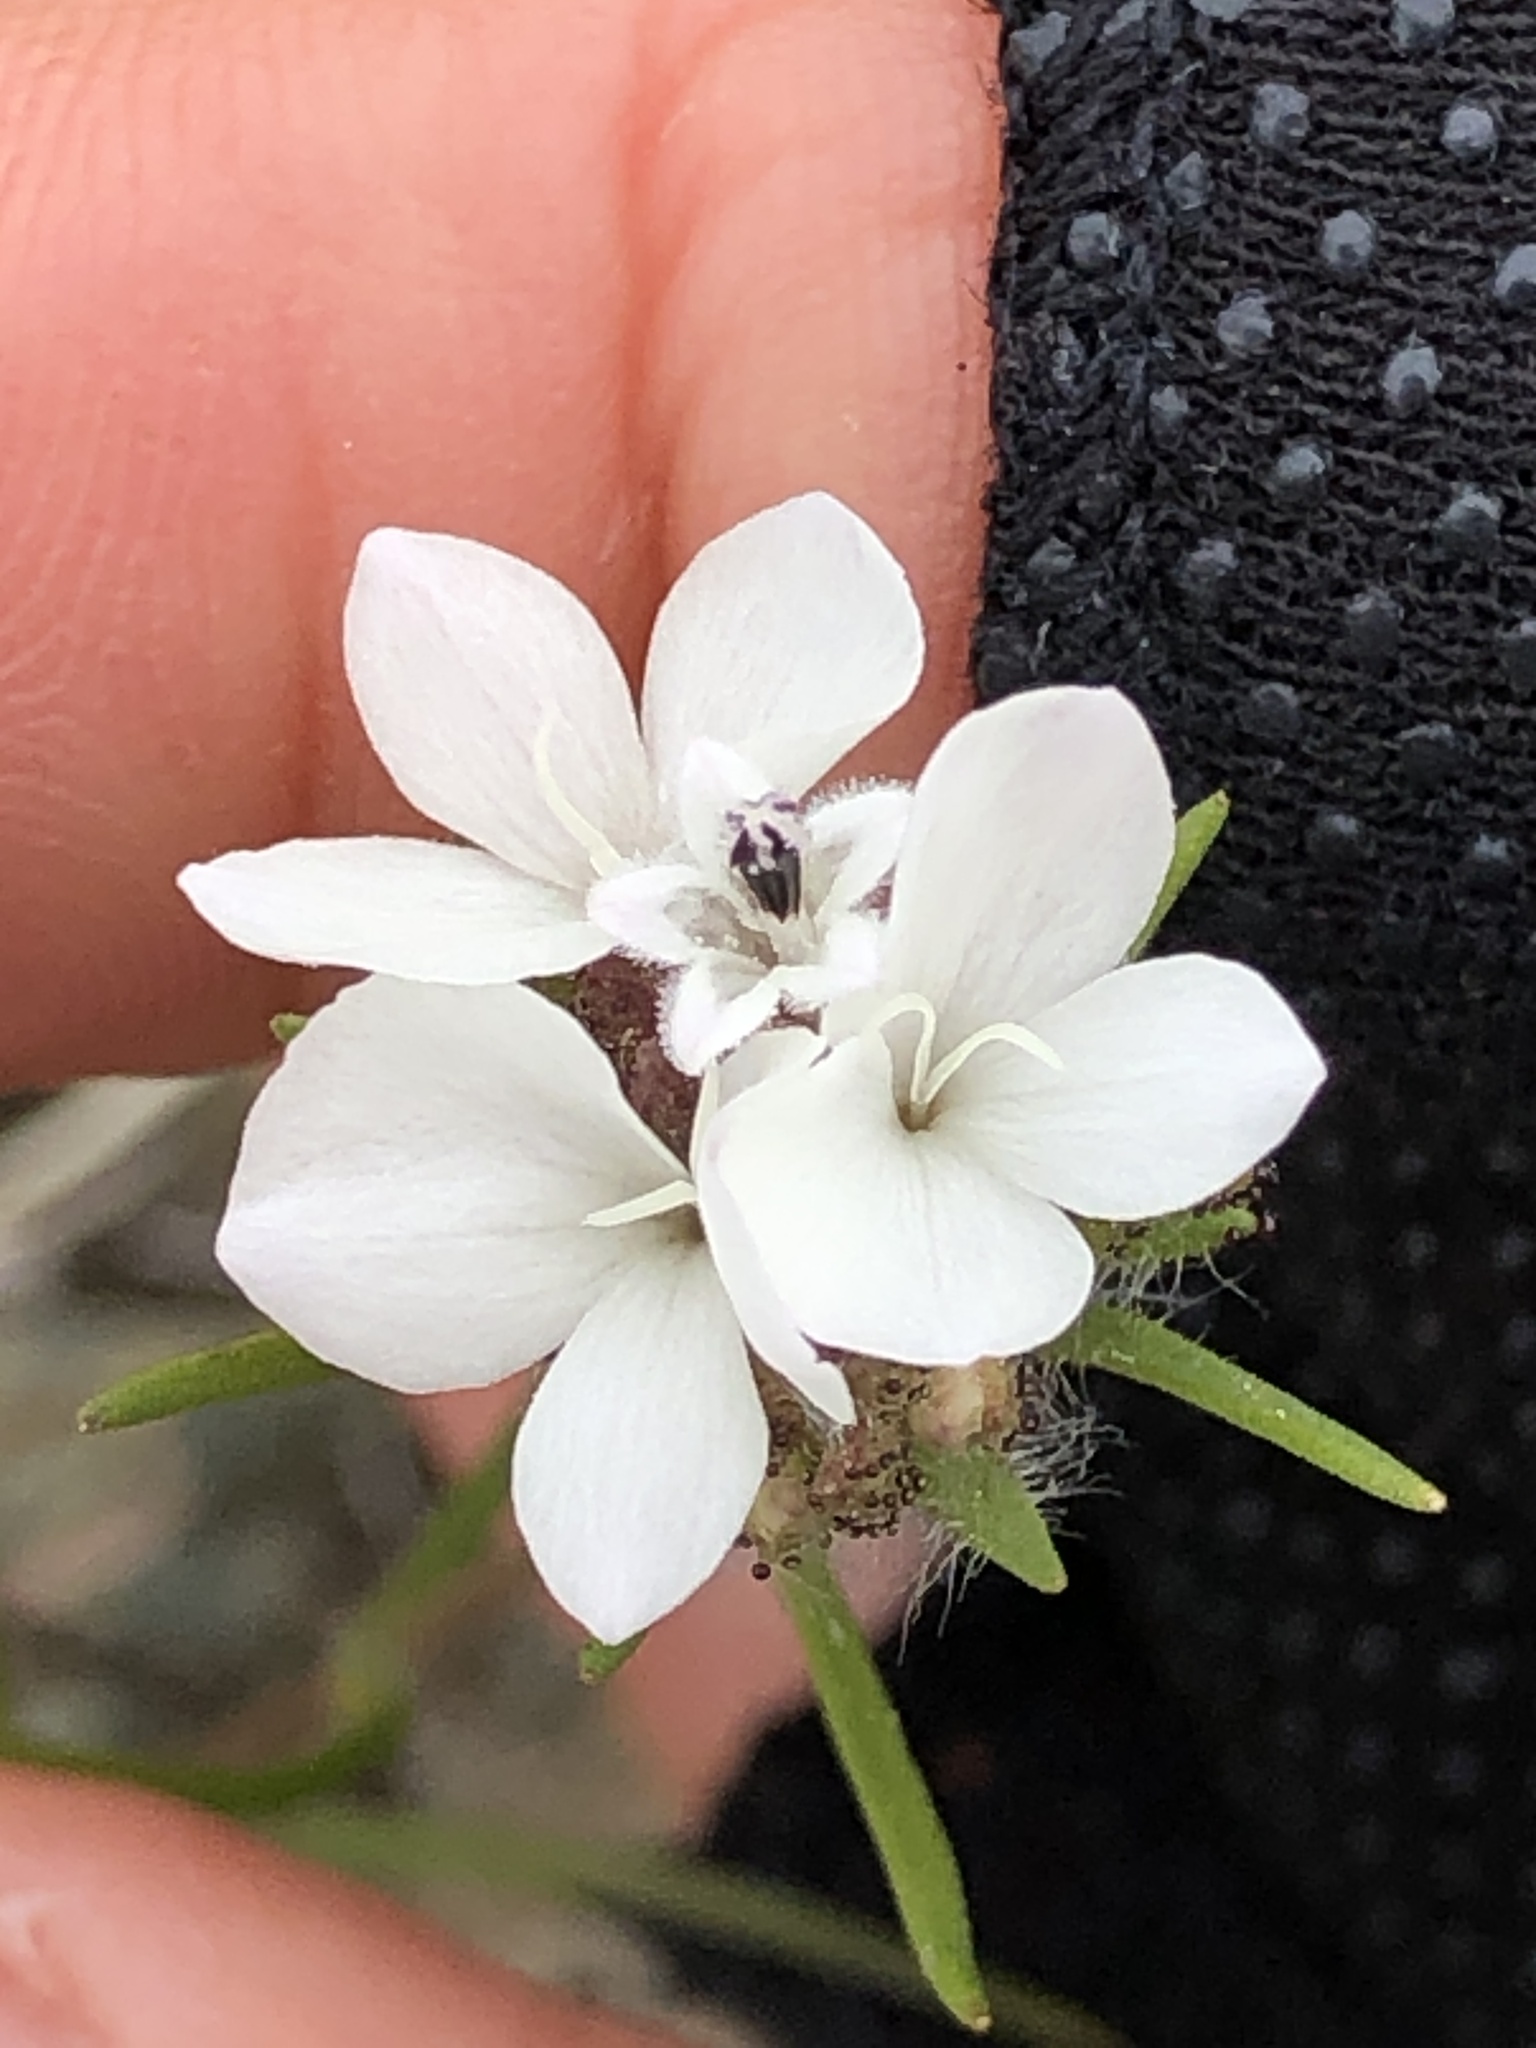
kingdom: Plantae
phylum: Tracheophyta
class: Magnoliopsida
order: Asterales
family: Asteraceae
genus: Calycadenia
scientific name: Calycadenia multiglandulosa
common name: Sticky calycadenia
